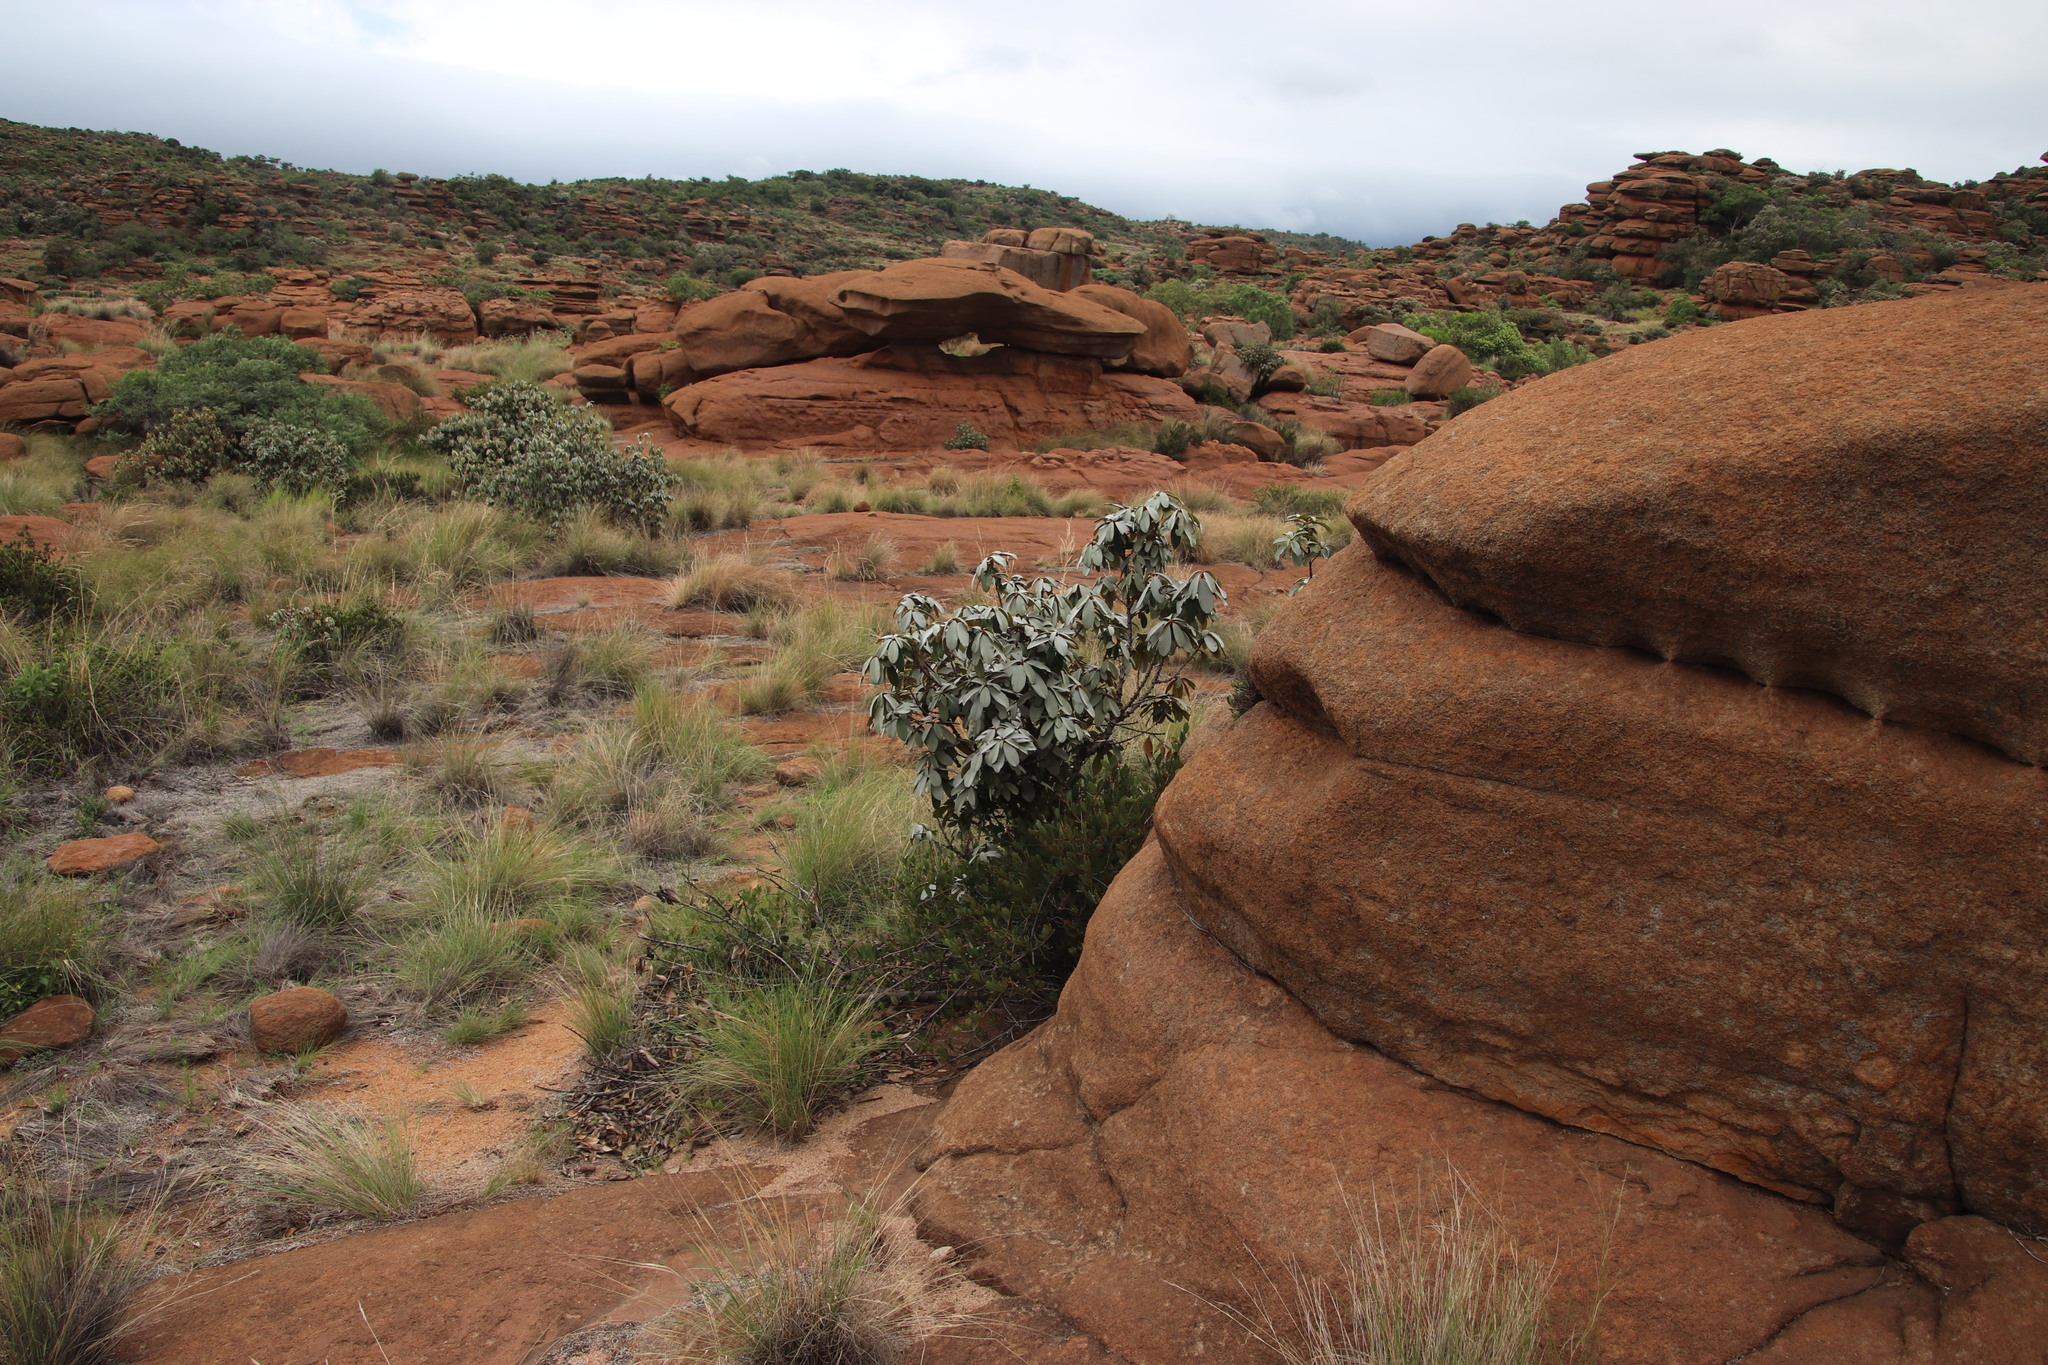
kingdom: Plantae
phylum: Tracheophyta
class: Magnoliopsida
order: Ericales
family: Sapotaceae
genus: Englerophytum
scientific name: Englerophytum magalismontanum
